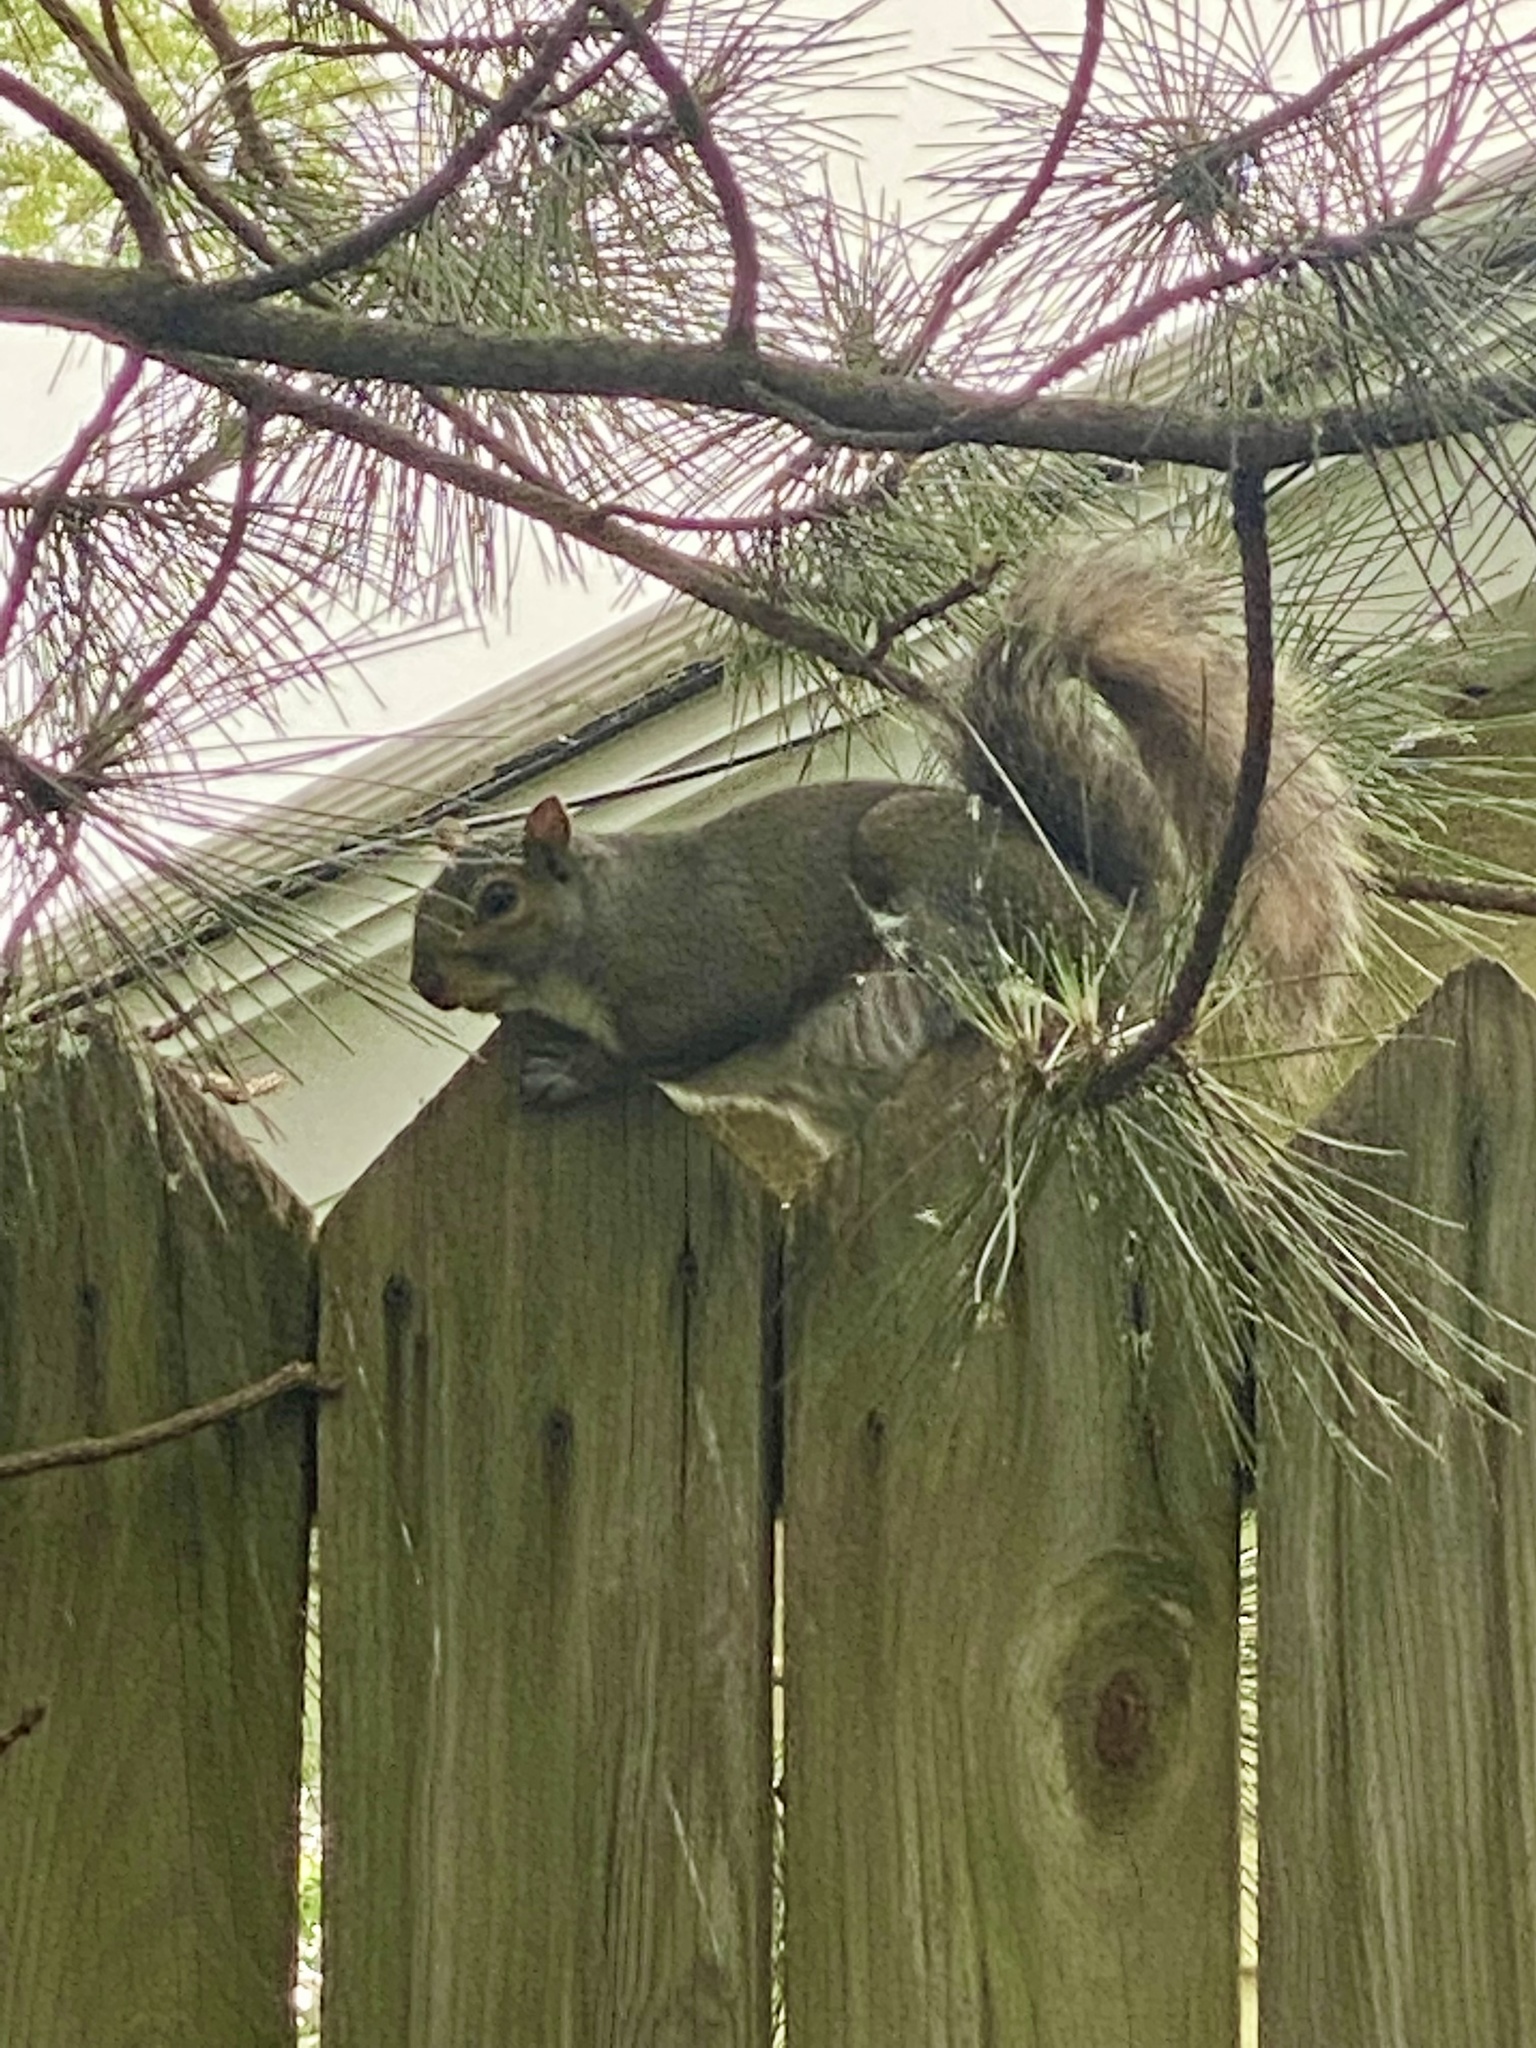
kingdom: Animalia
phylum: Chordata
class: Mammalia
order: Rodentia
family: Sciuridae
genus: Sciurus
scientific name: Sciurus carolinensis
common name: Eastern gray squirrel
